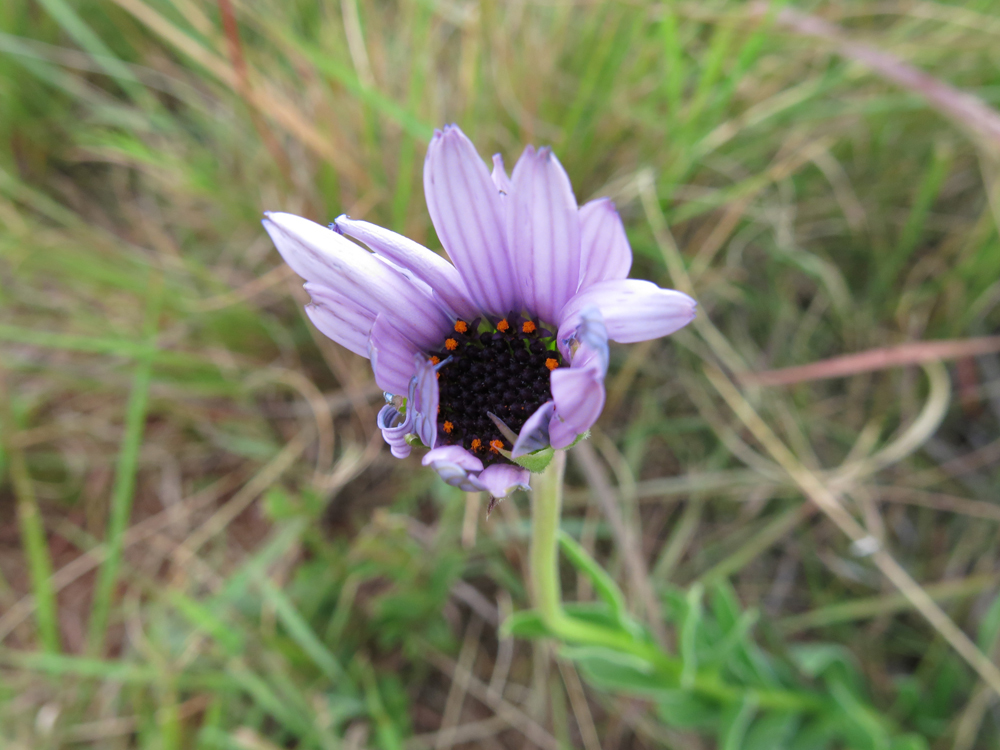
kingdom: Plantae
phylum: Tracheophyta
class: Magnoliopsida
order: Asterales
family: Asteraceae
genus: Dimorphotheca
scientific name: Dimorphotheca spectabilis
